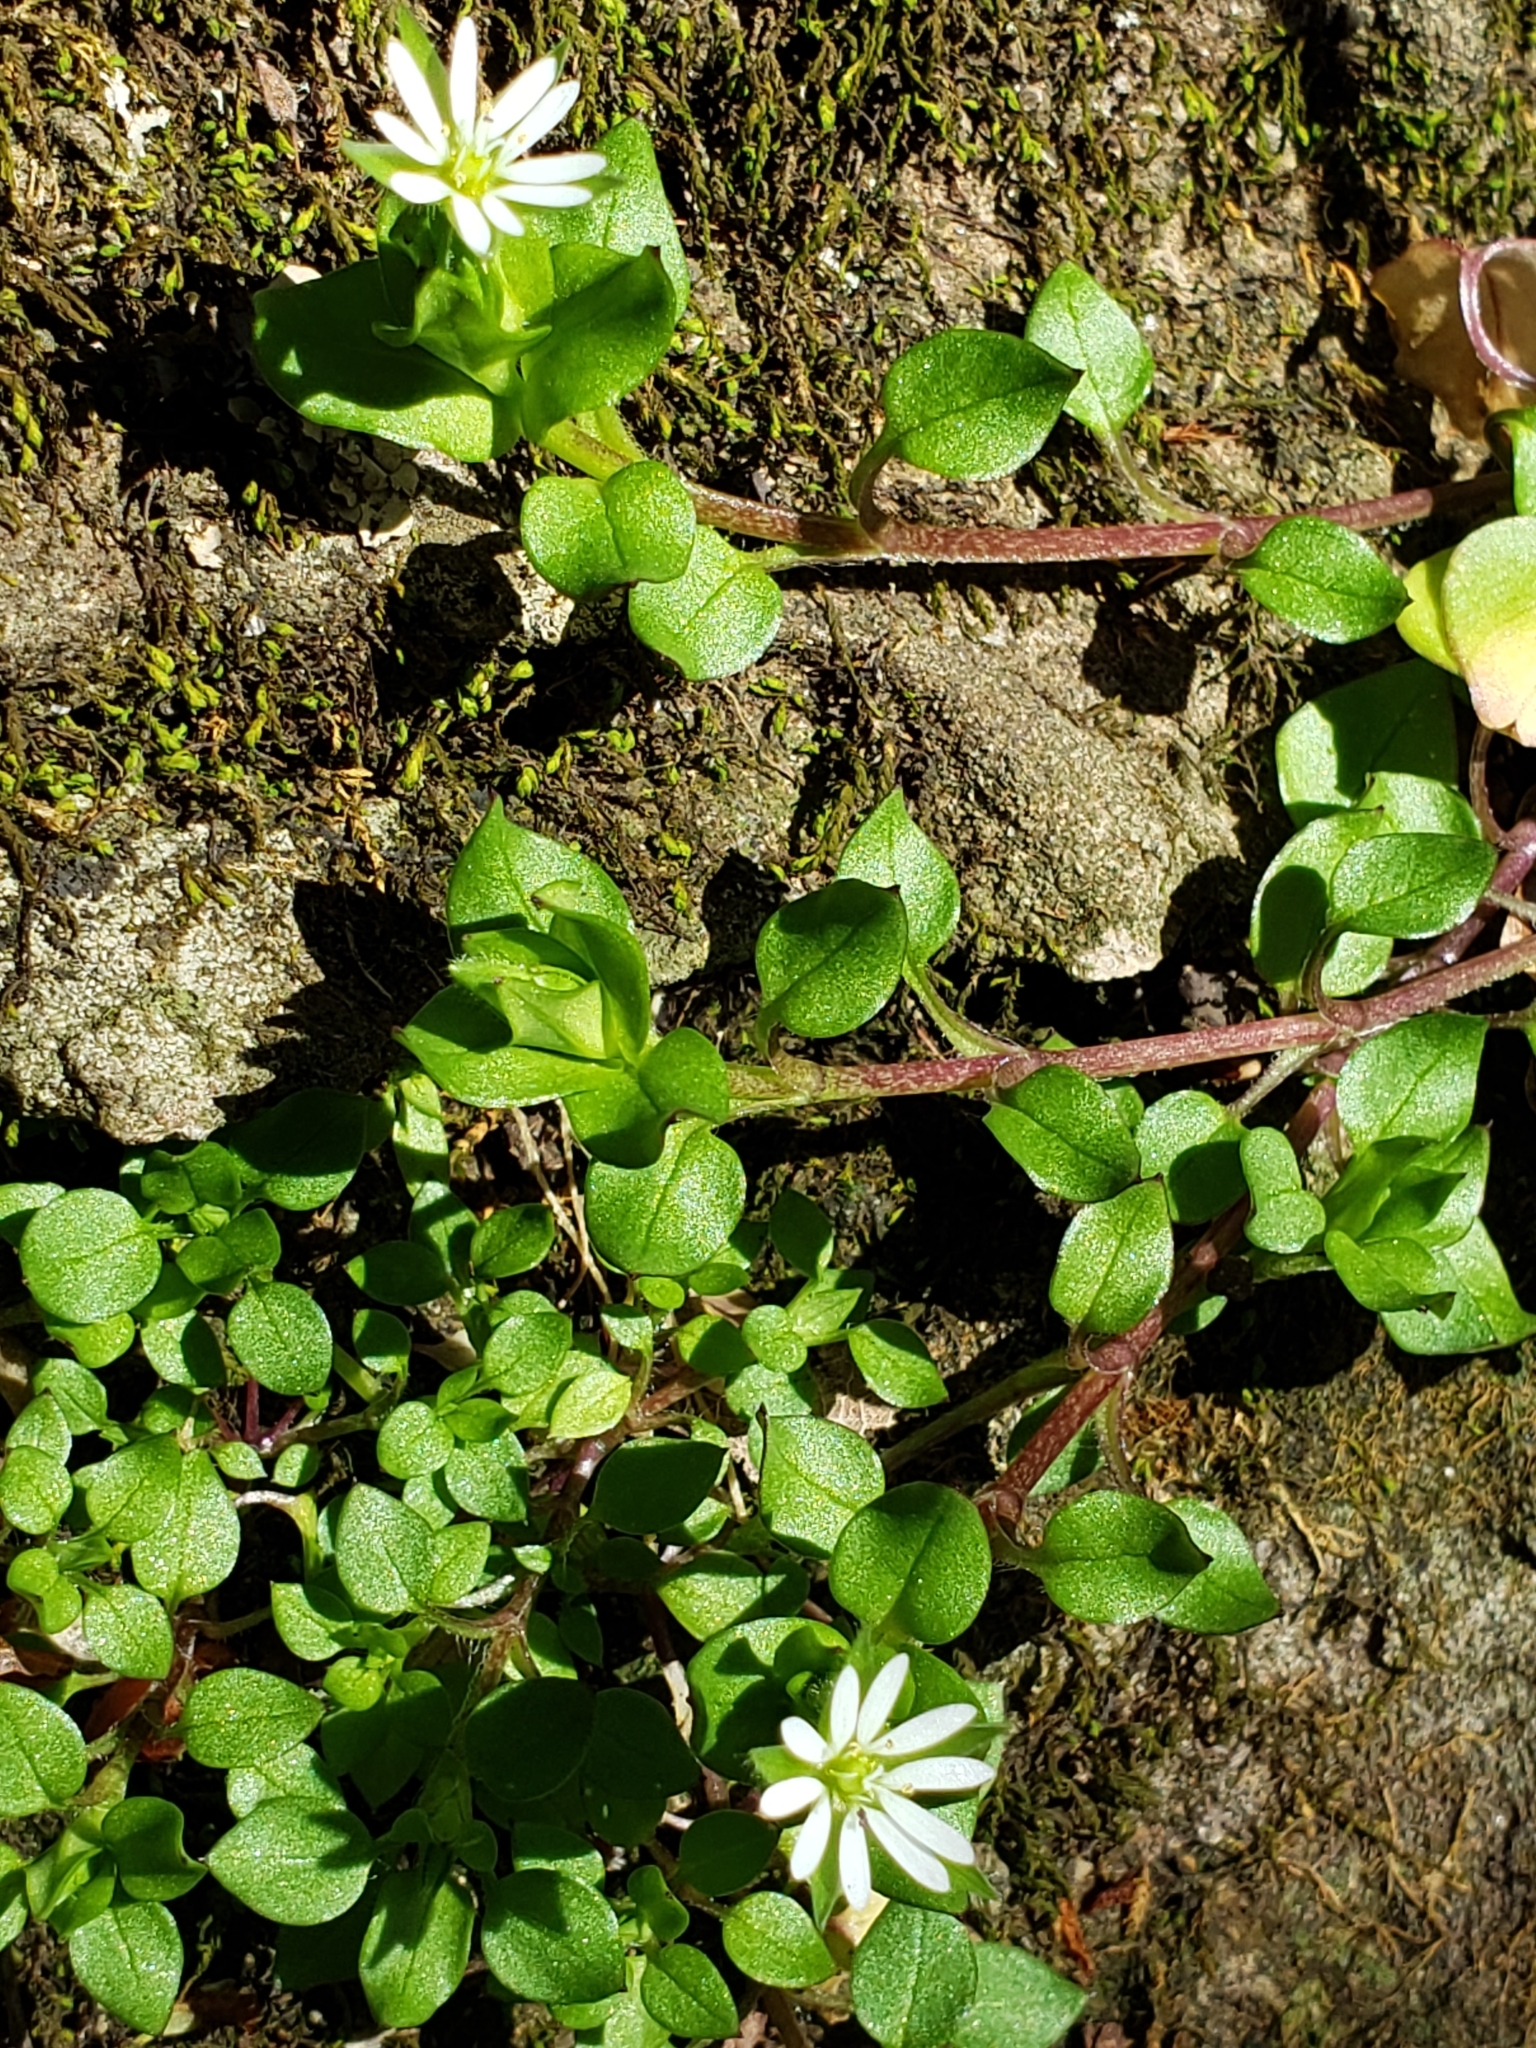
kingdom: Plantae
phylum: Tracheophyta
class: Magnoliopsida
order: Caryophyllales
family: Caryophyllaceae
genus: Stellaria
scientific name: Stellaria media
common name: Common chickweed
